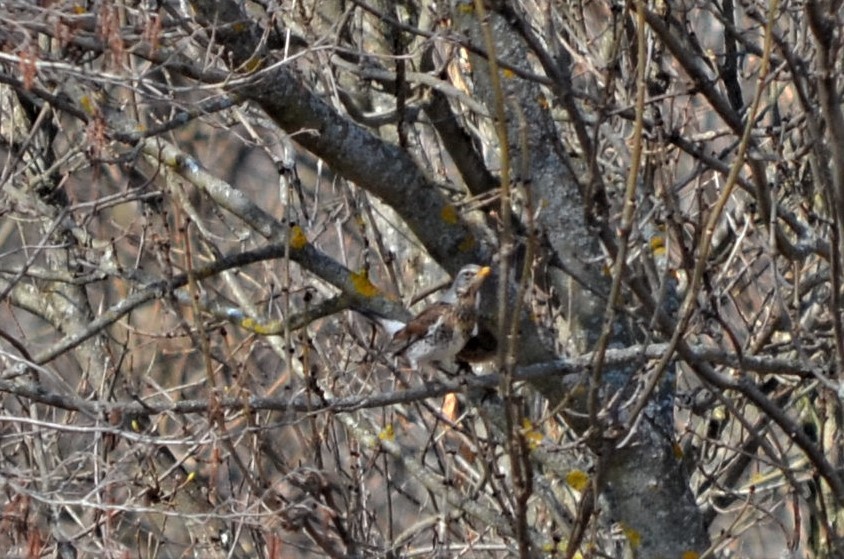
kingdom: Animalia
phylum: Chordata
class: Aves
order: Passeriformes
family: Turdidae
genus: Turdus
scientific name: Turdus pilaris
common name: Fieldfare
